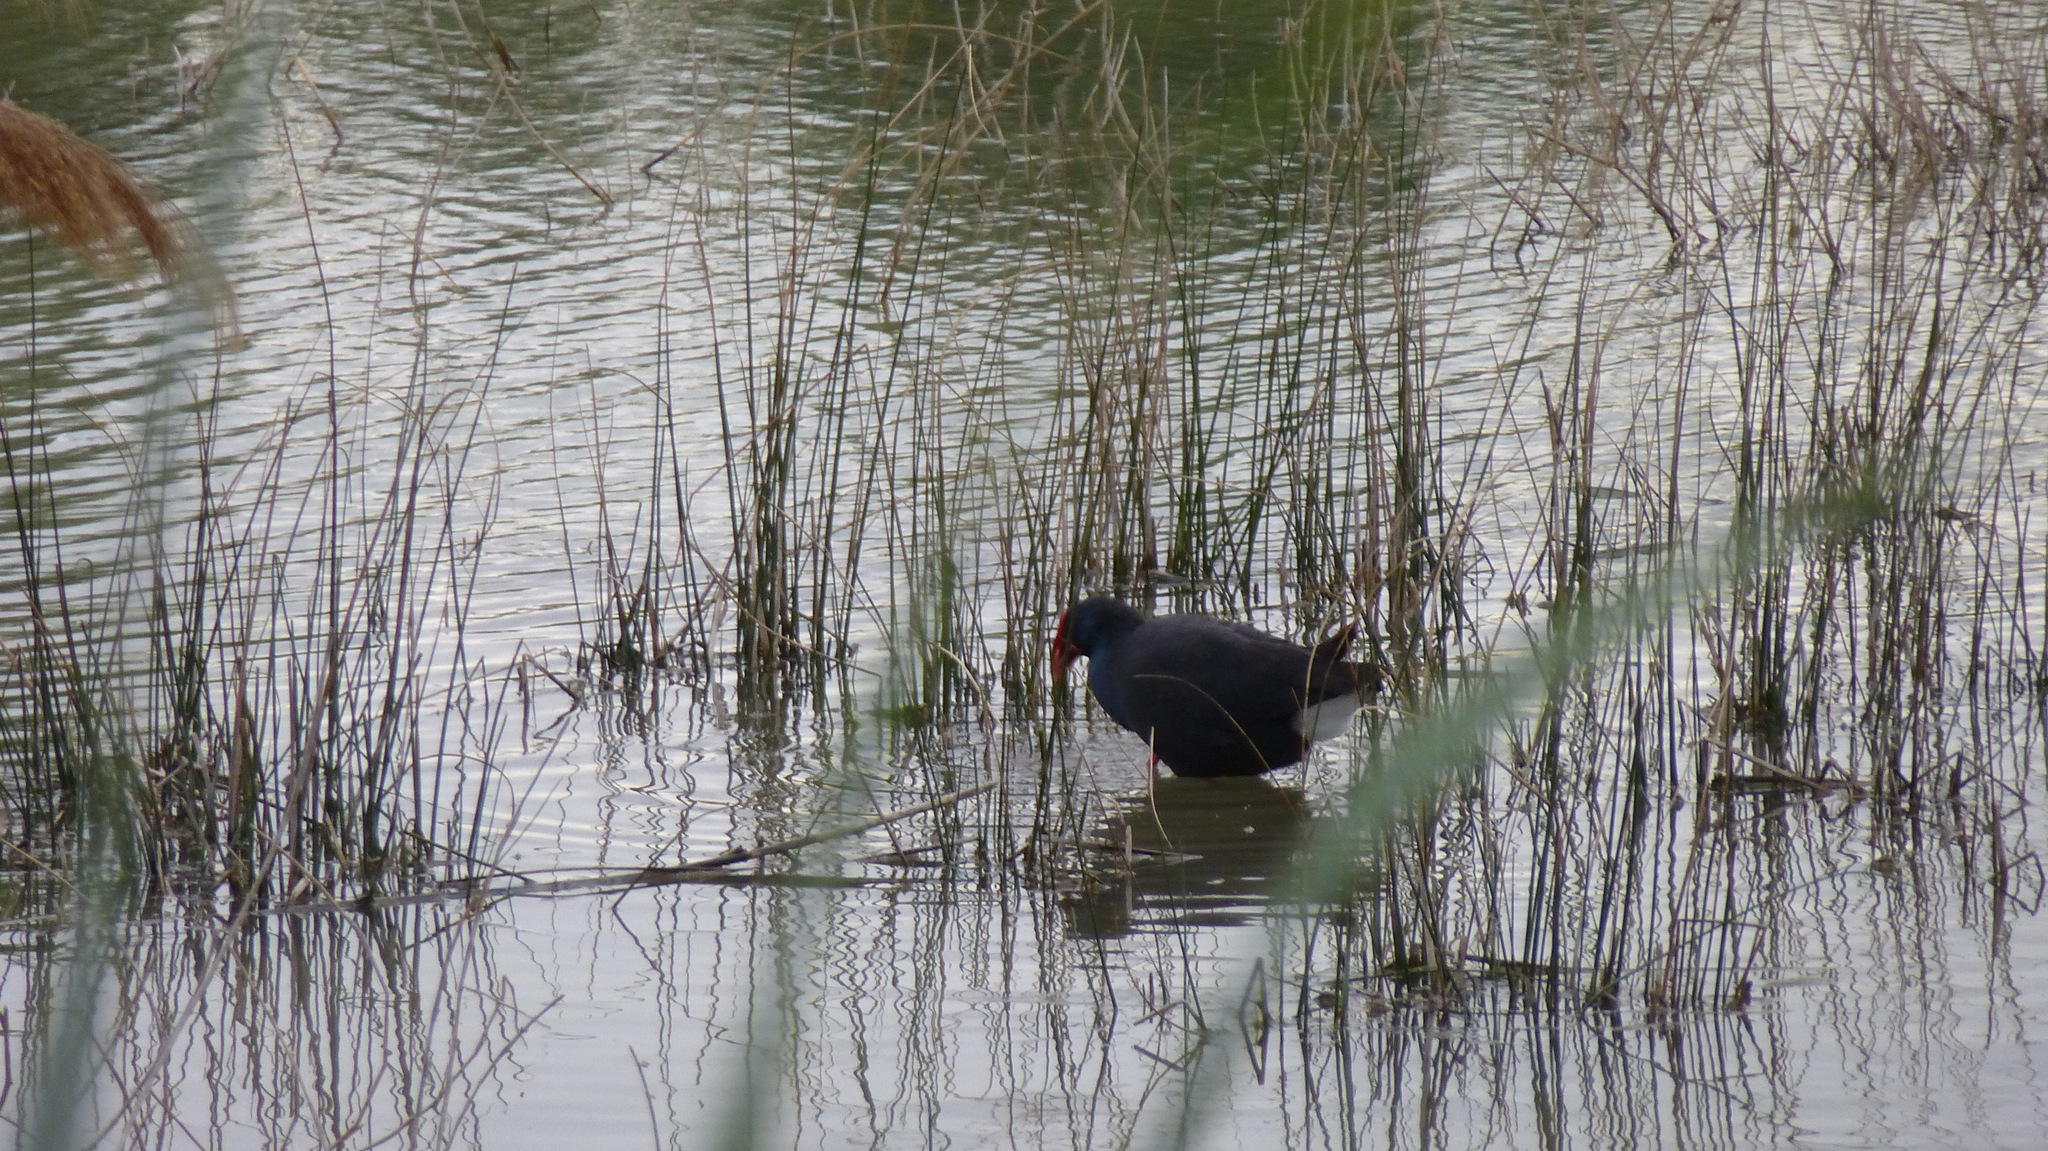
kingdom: Animalia
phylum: Chordata
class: Aves
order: Gruiformes
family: Rallidae
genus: Porphyrio
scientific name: Porphyrio porphyrio
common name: Purple swamphen
